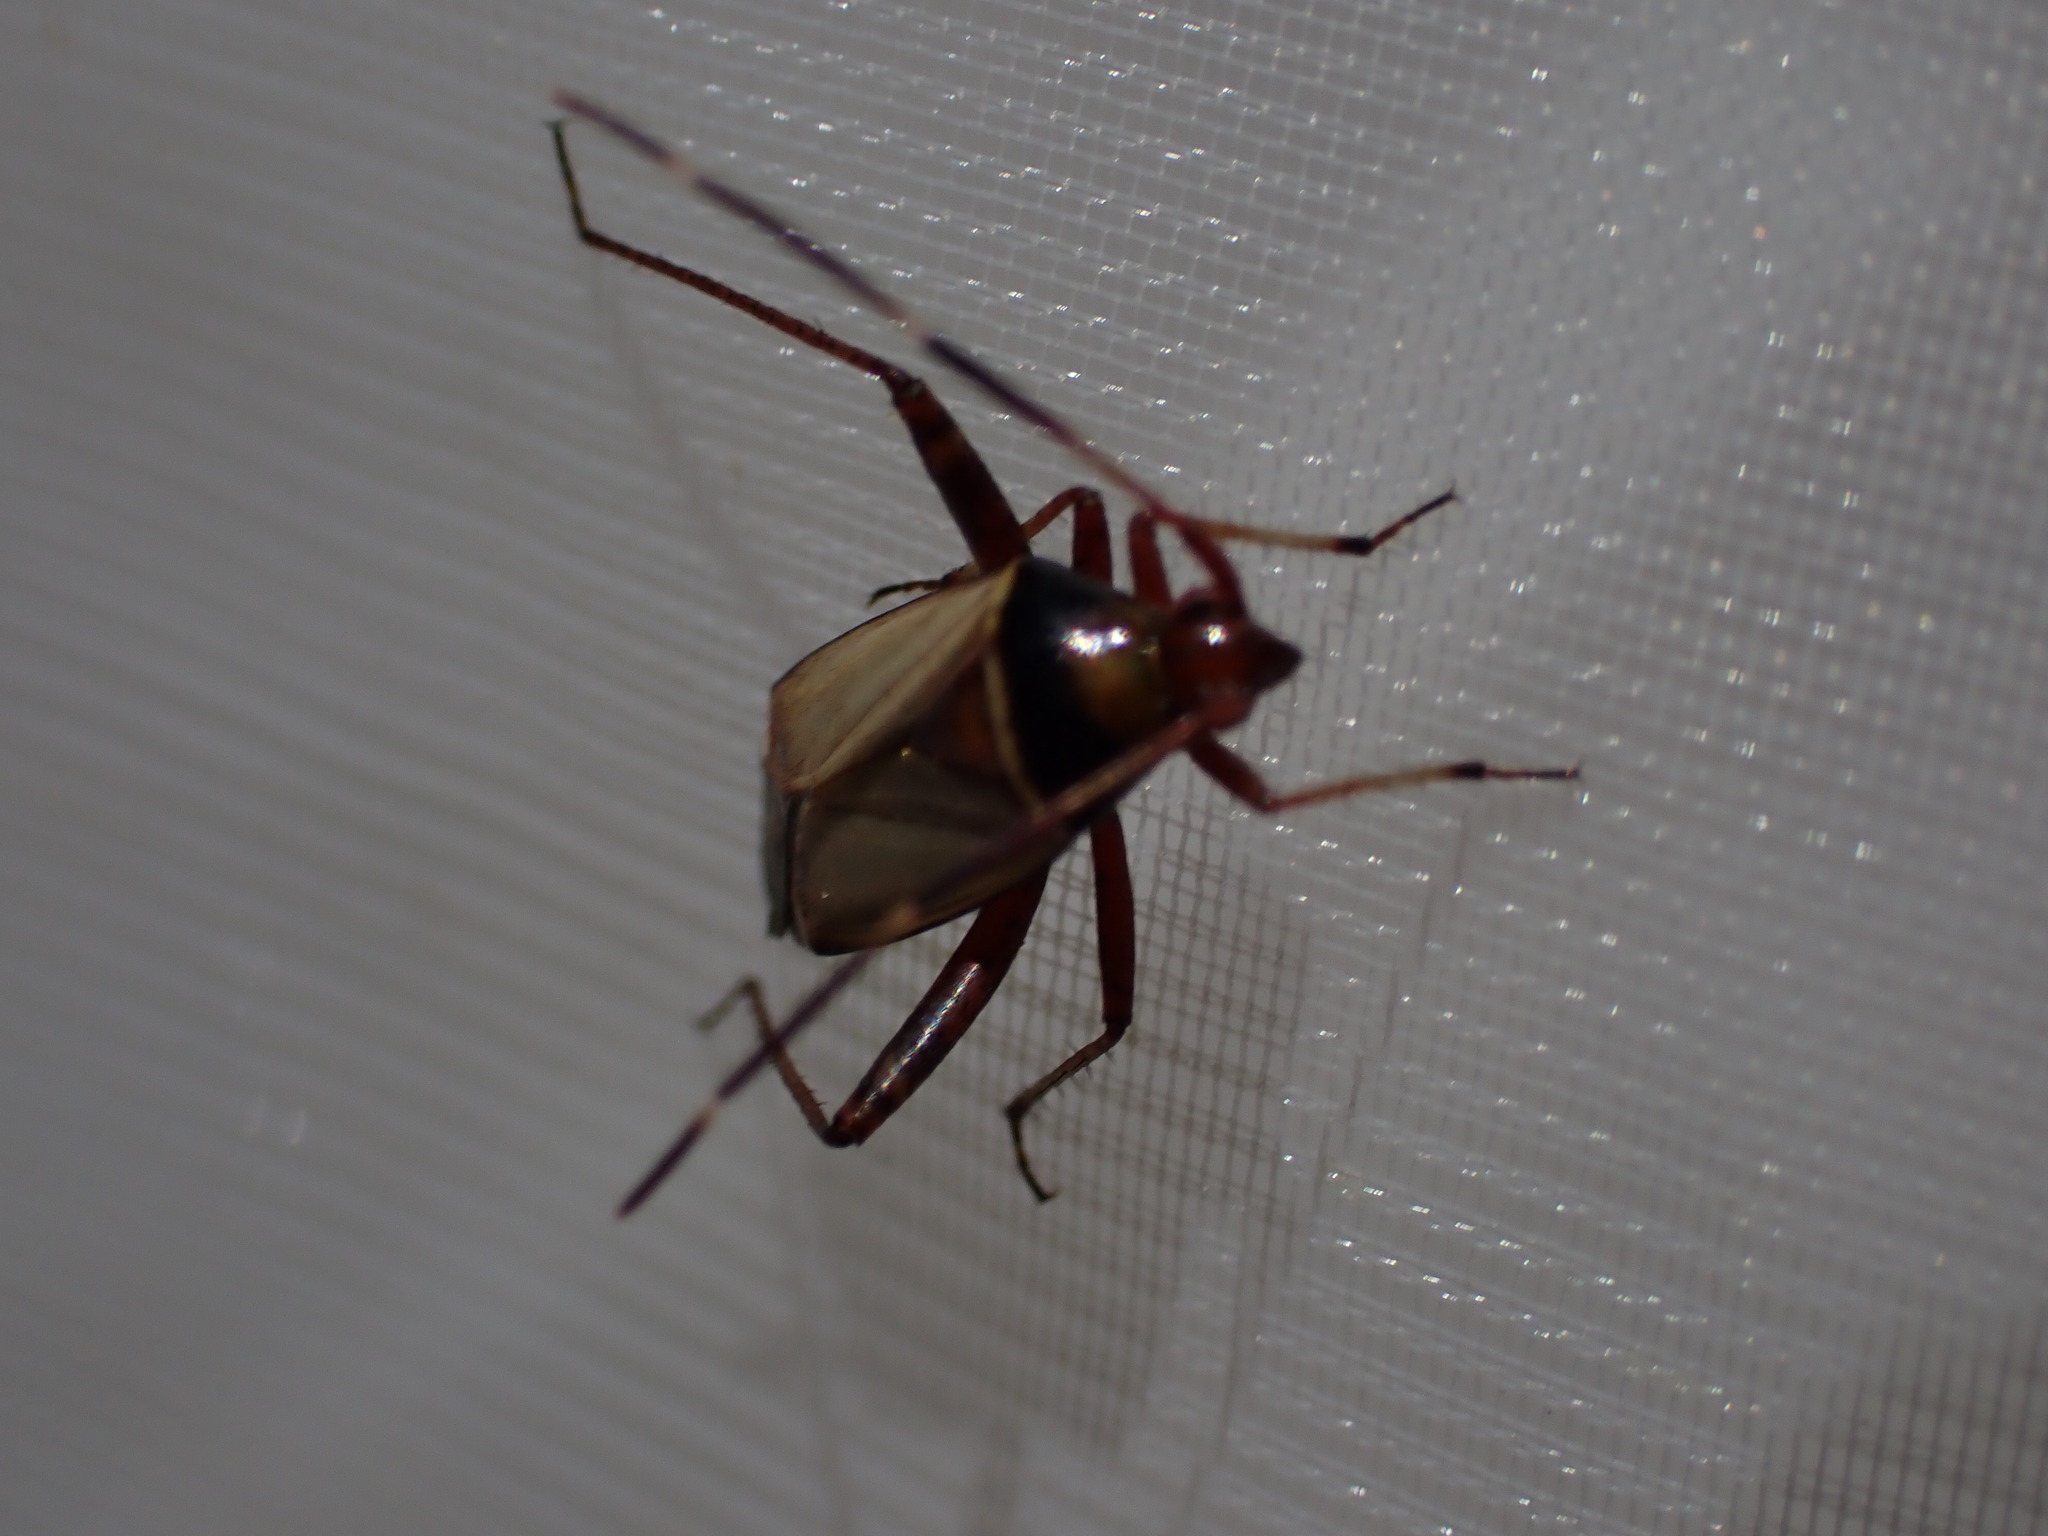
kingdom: Animalia
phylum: Arthropoda
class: Insecta
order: Hemiptera
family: Miridae
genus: Adelphocoris
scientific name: Adelphocoris vandalicus
